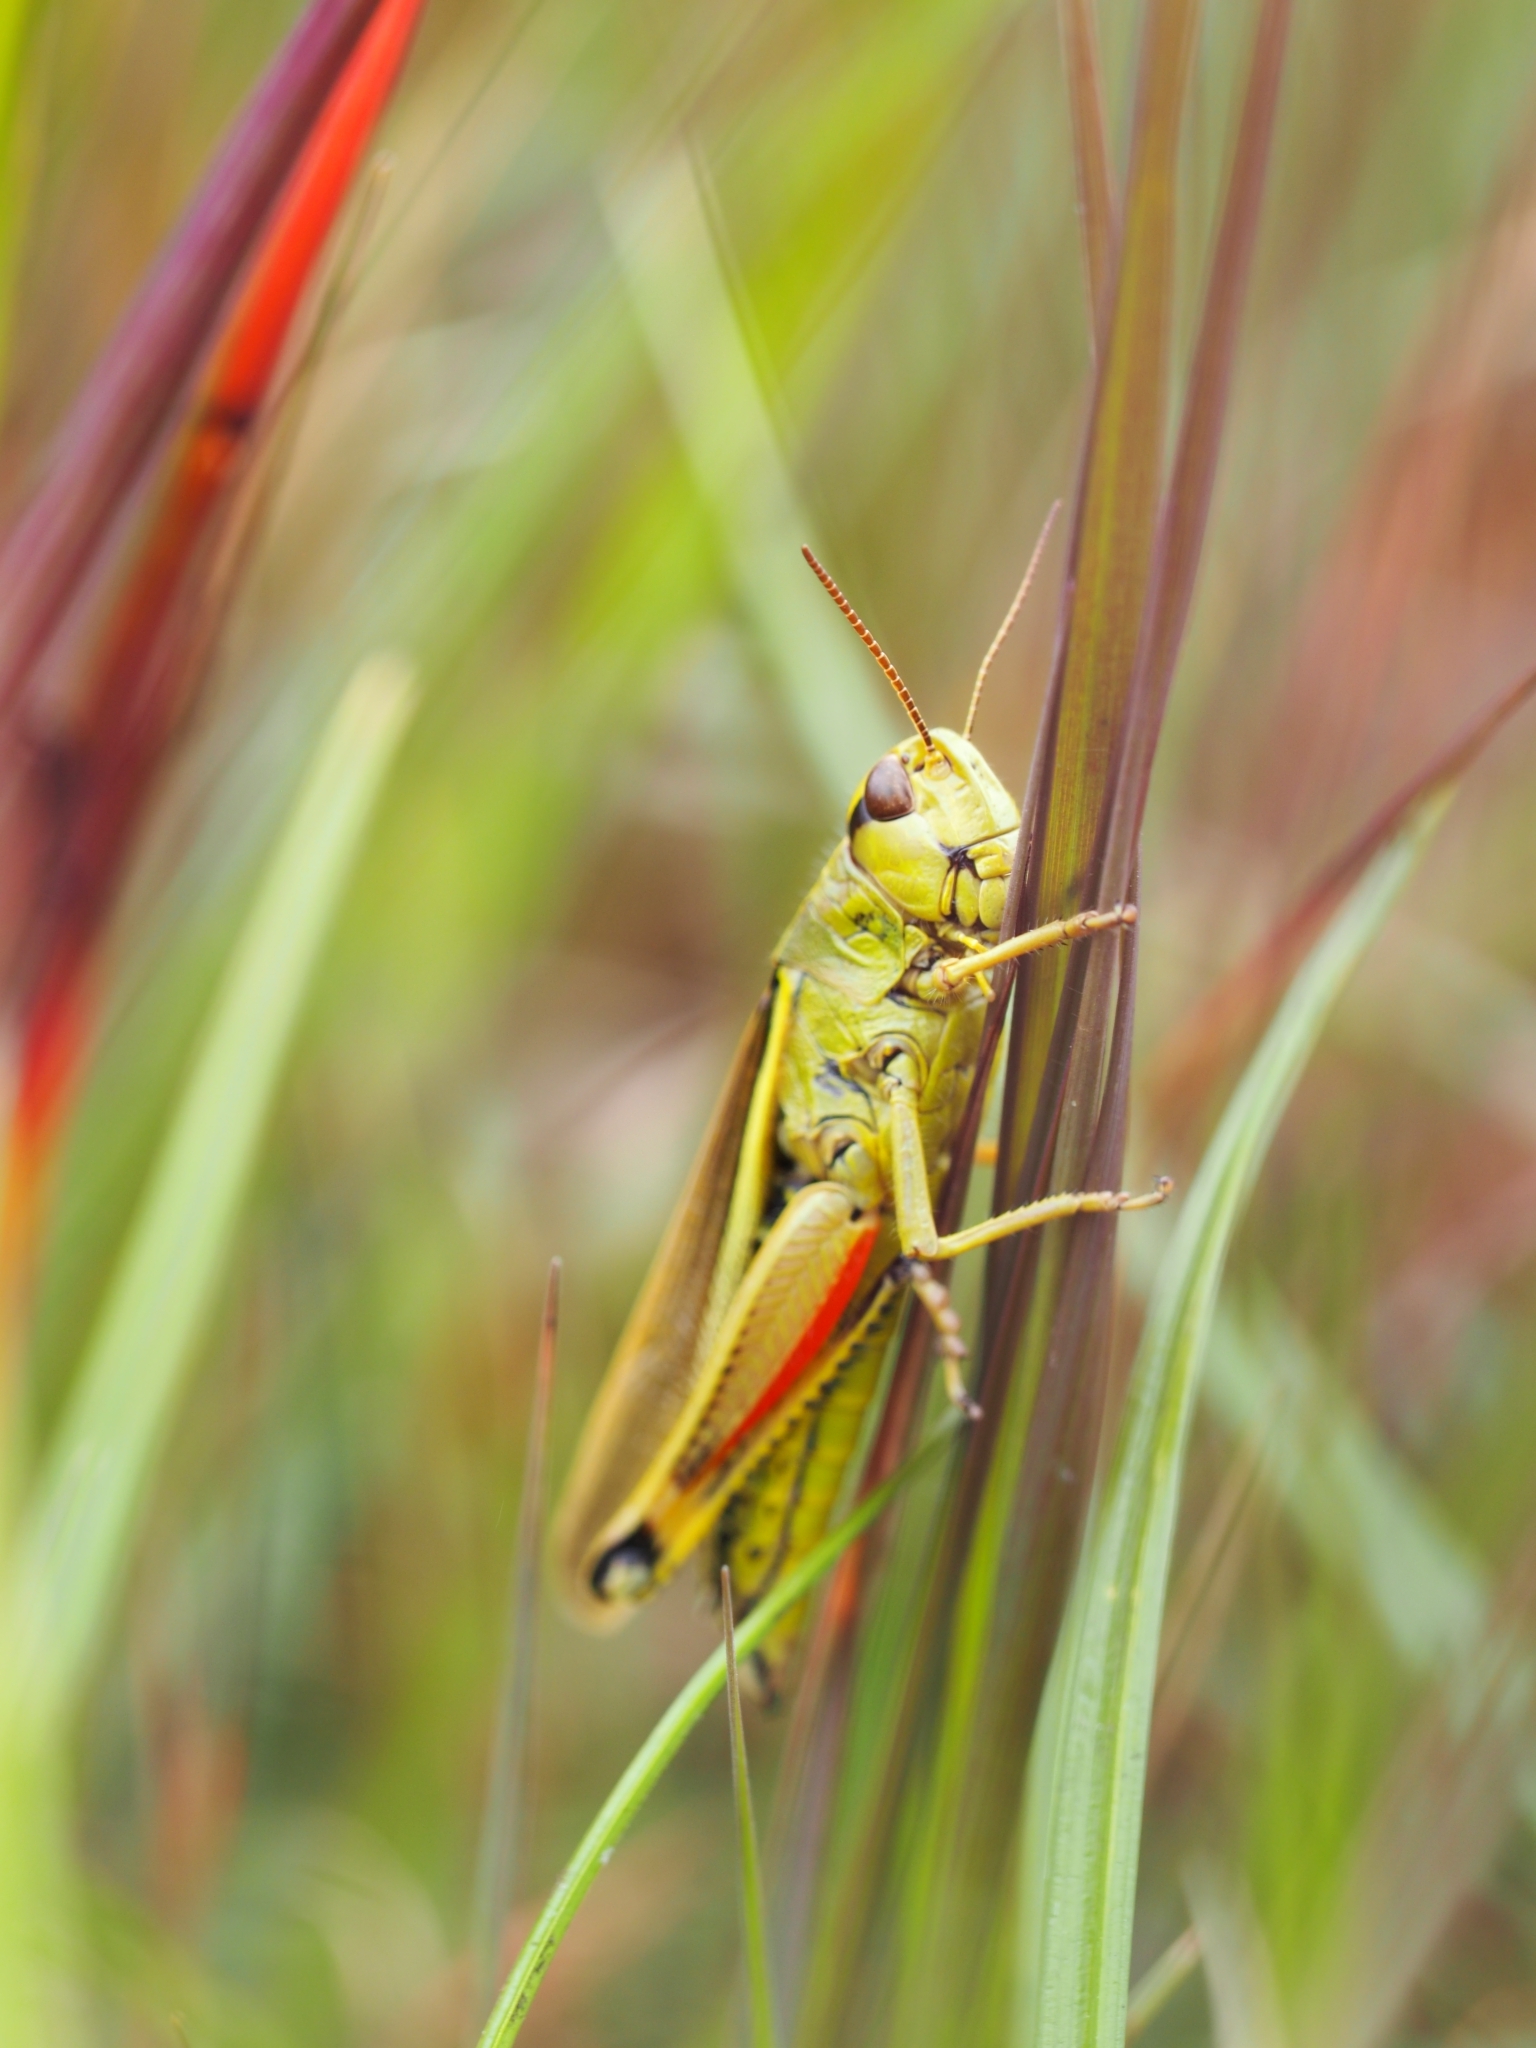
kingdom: Animalia
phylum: Arthropoda
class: Insecta
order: Orthoptera
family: Acrididae
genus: Stethophyma
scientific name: Stethophyma grossum
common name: Large marsh grasshopper
